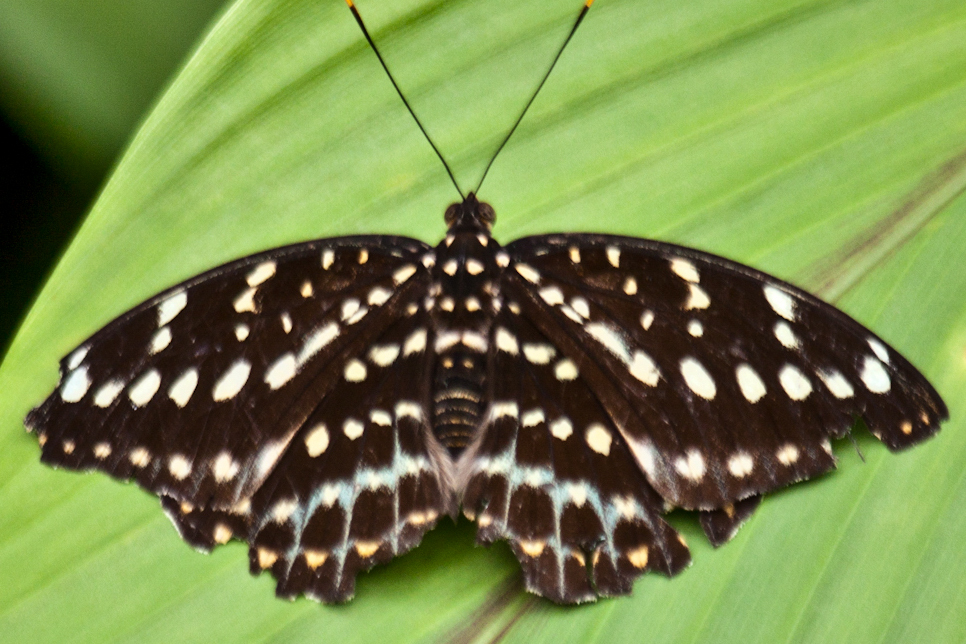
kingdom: Animalia
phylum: Arthropoda
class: Insecta
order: Lepidoptera
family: Nymphalidae
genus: Lexias
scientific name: Lexias pardalis
